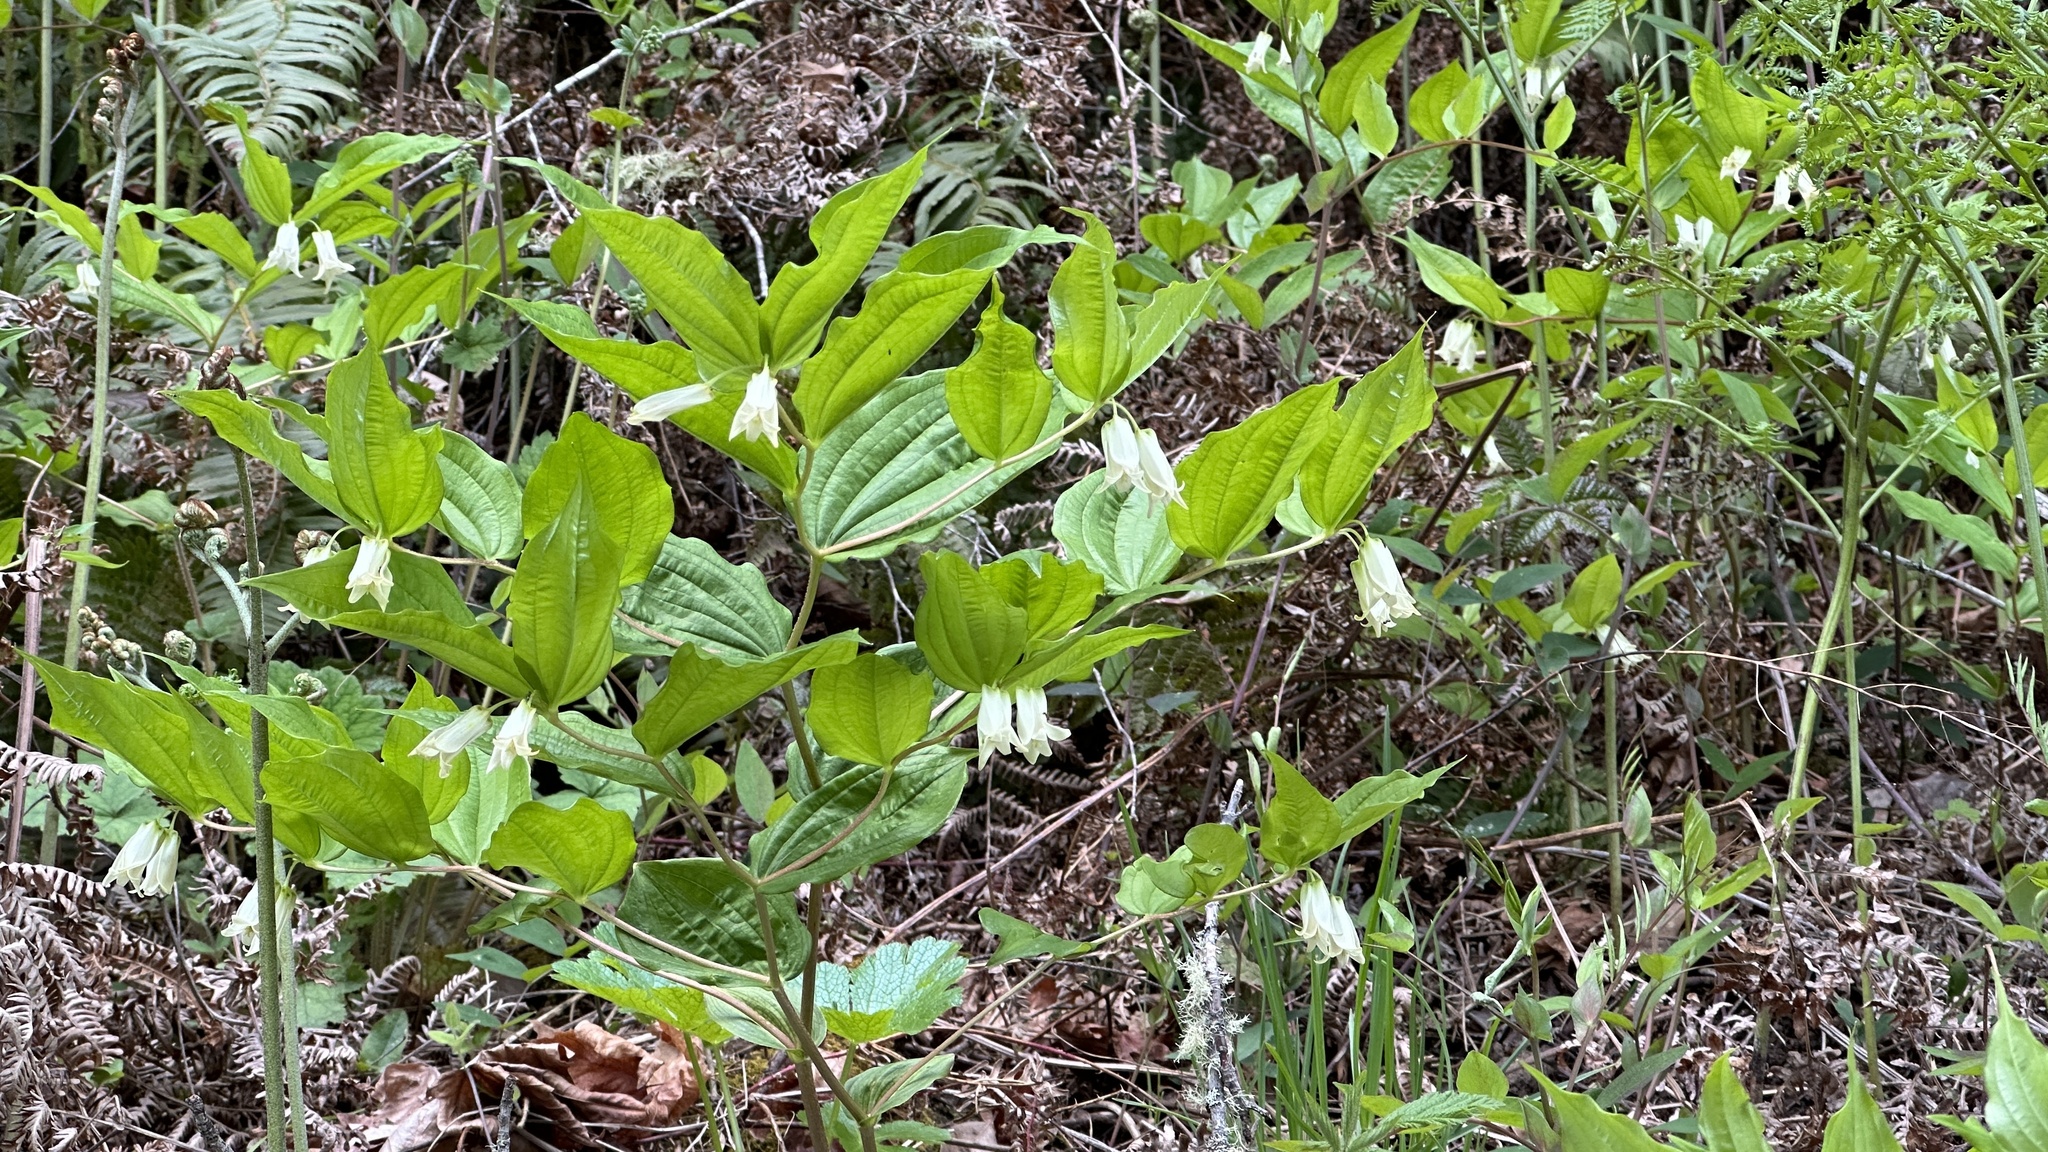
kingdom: Plantae
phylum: Tracheophyta
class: Liliopsida
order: Liliales
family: Liliaceae
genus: Prosartes
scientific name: Prosartes smithii
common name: Fairy-lantern
